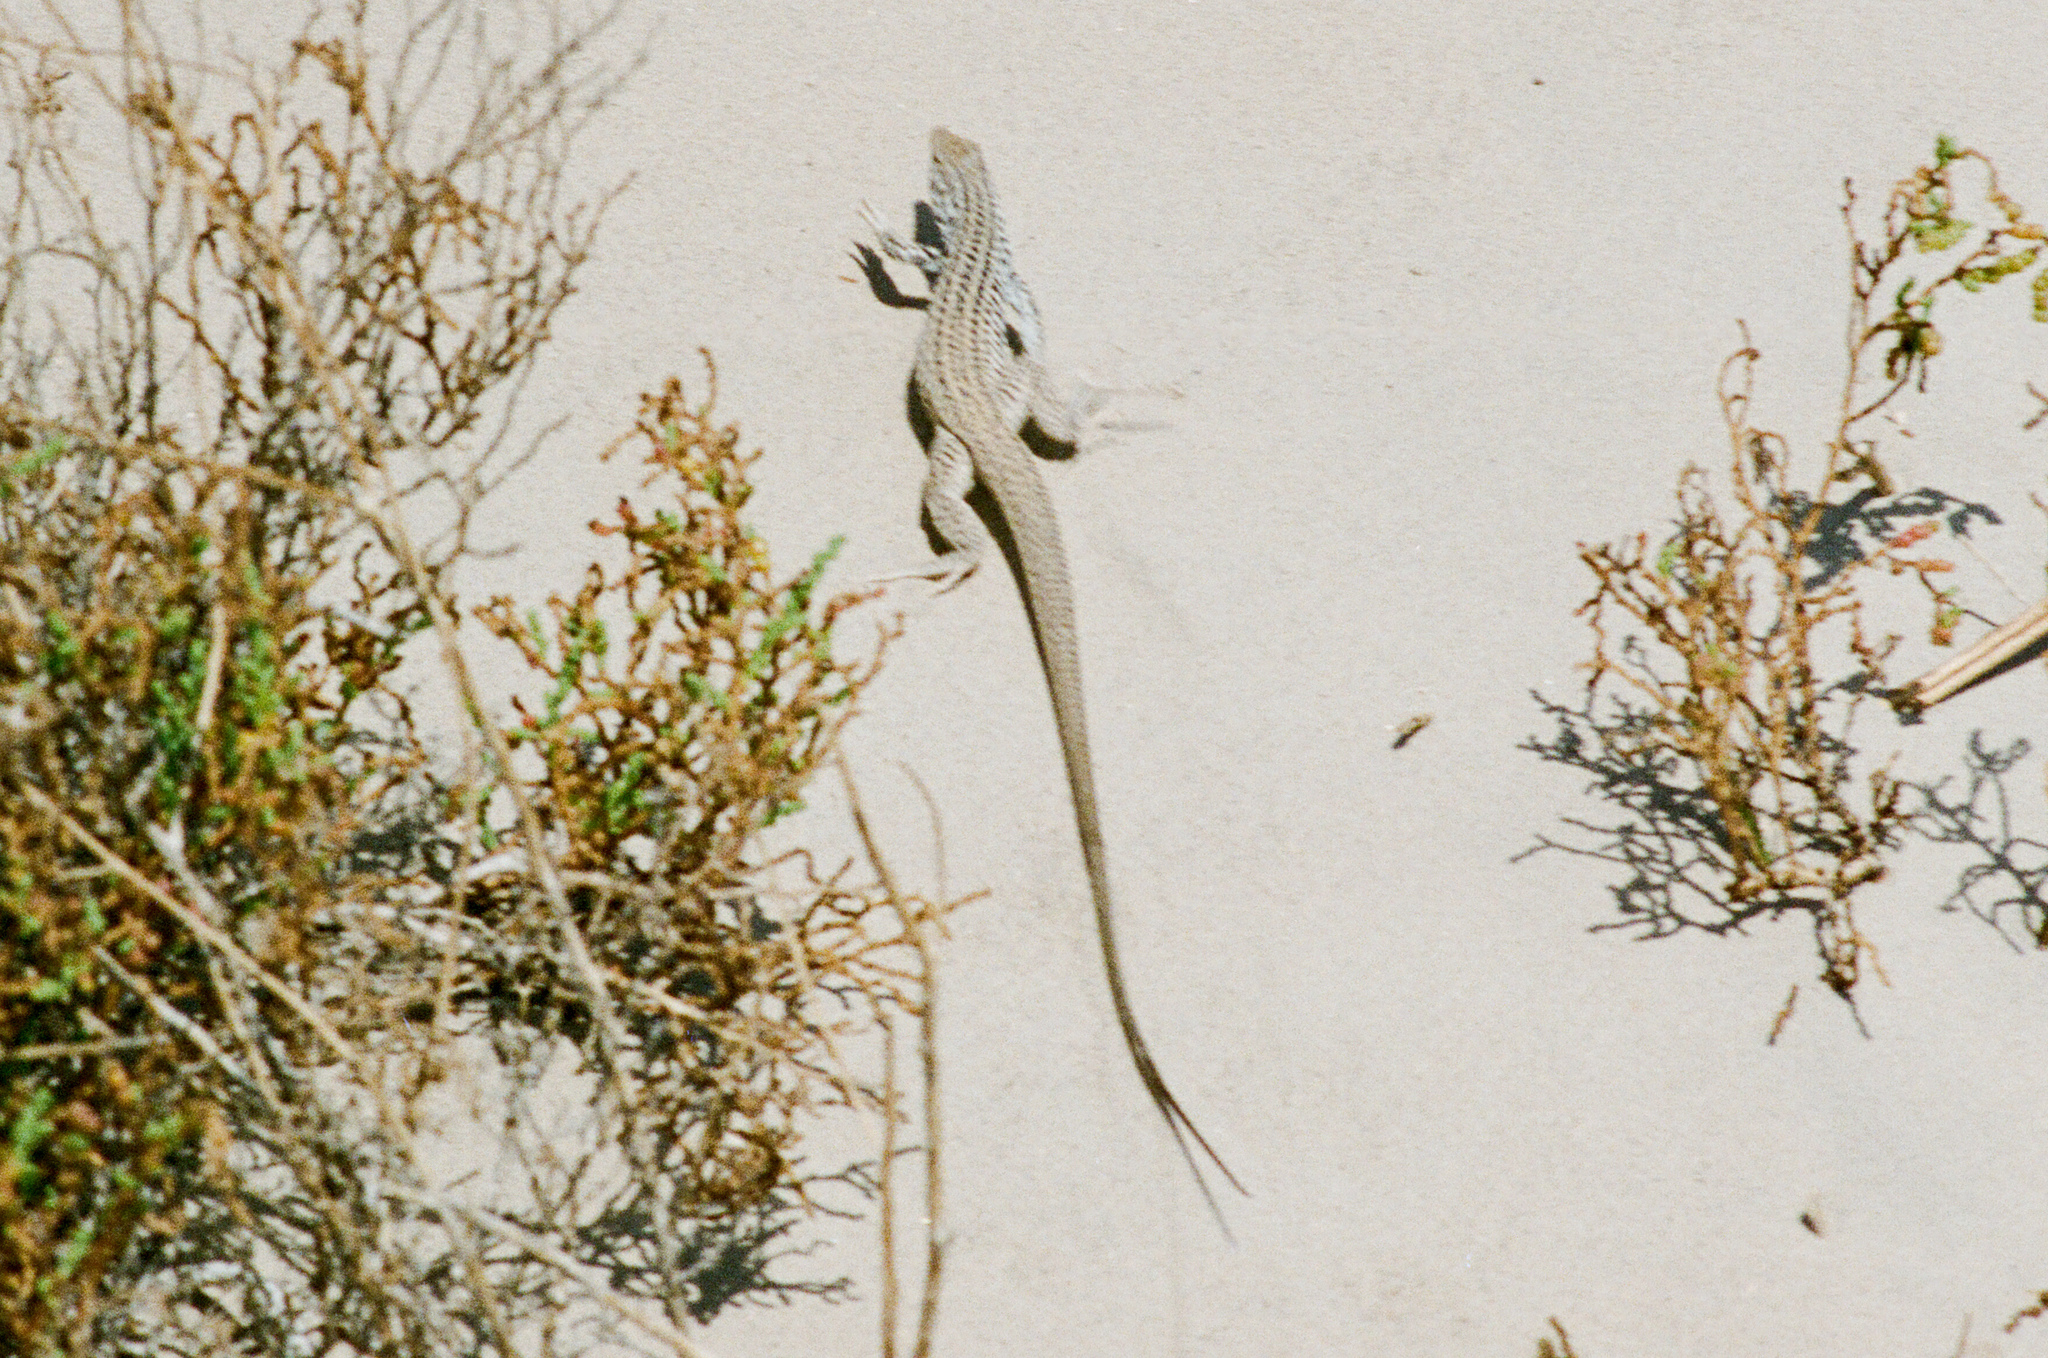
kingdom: Animalia
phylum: Chordata
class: Squamata
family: Teiidae
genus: Aspidoscelis
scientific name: Aspidoscelis tigris
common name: Tiger whiptail
